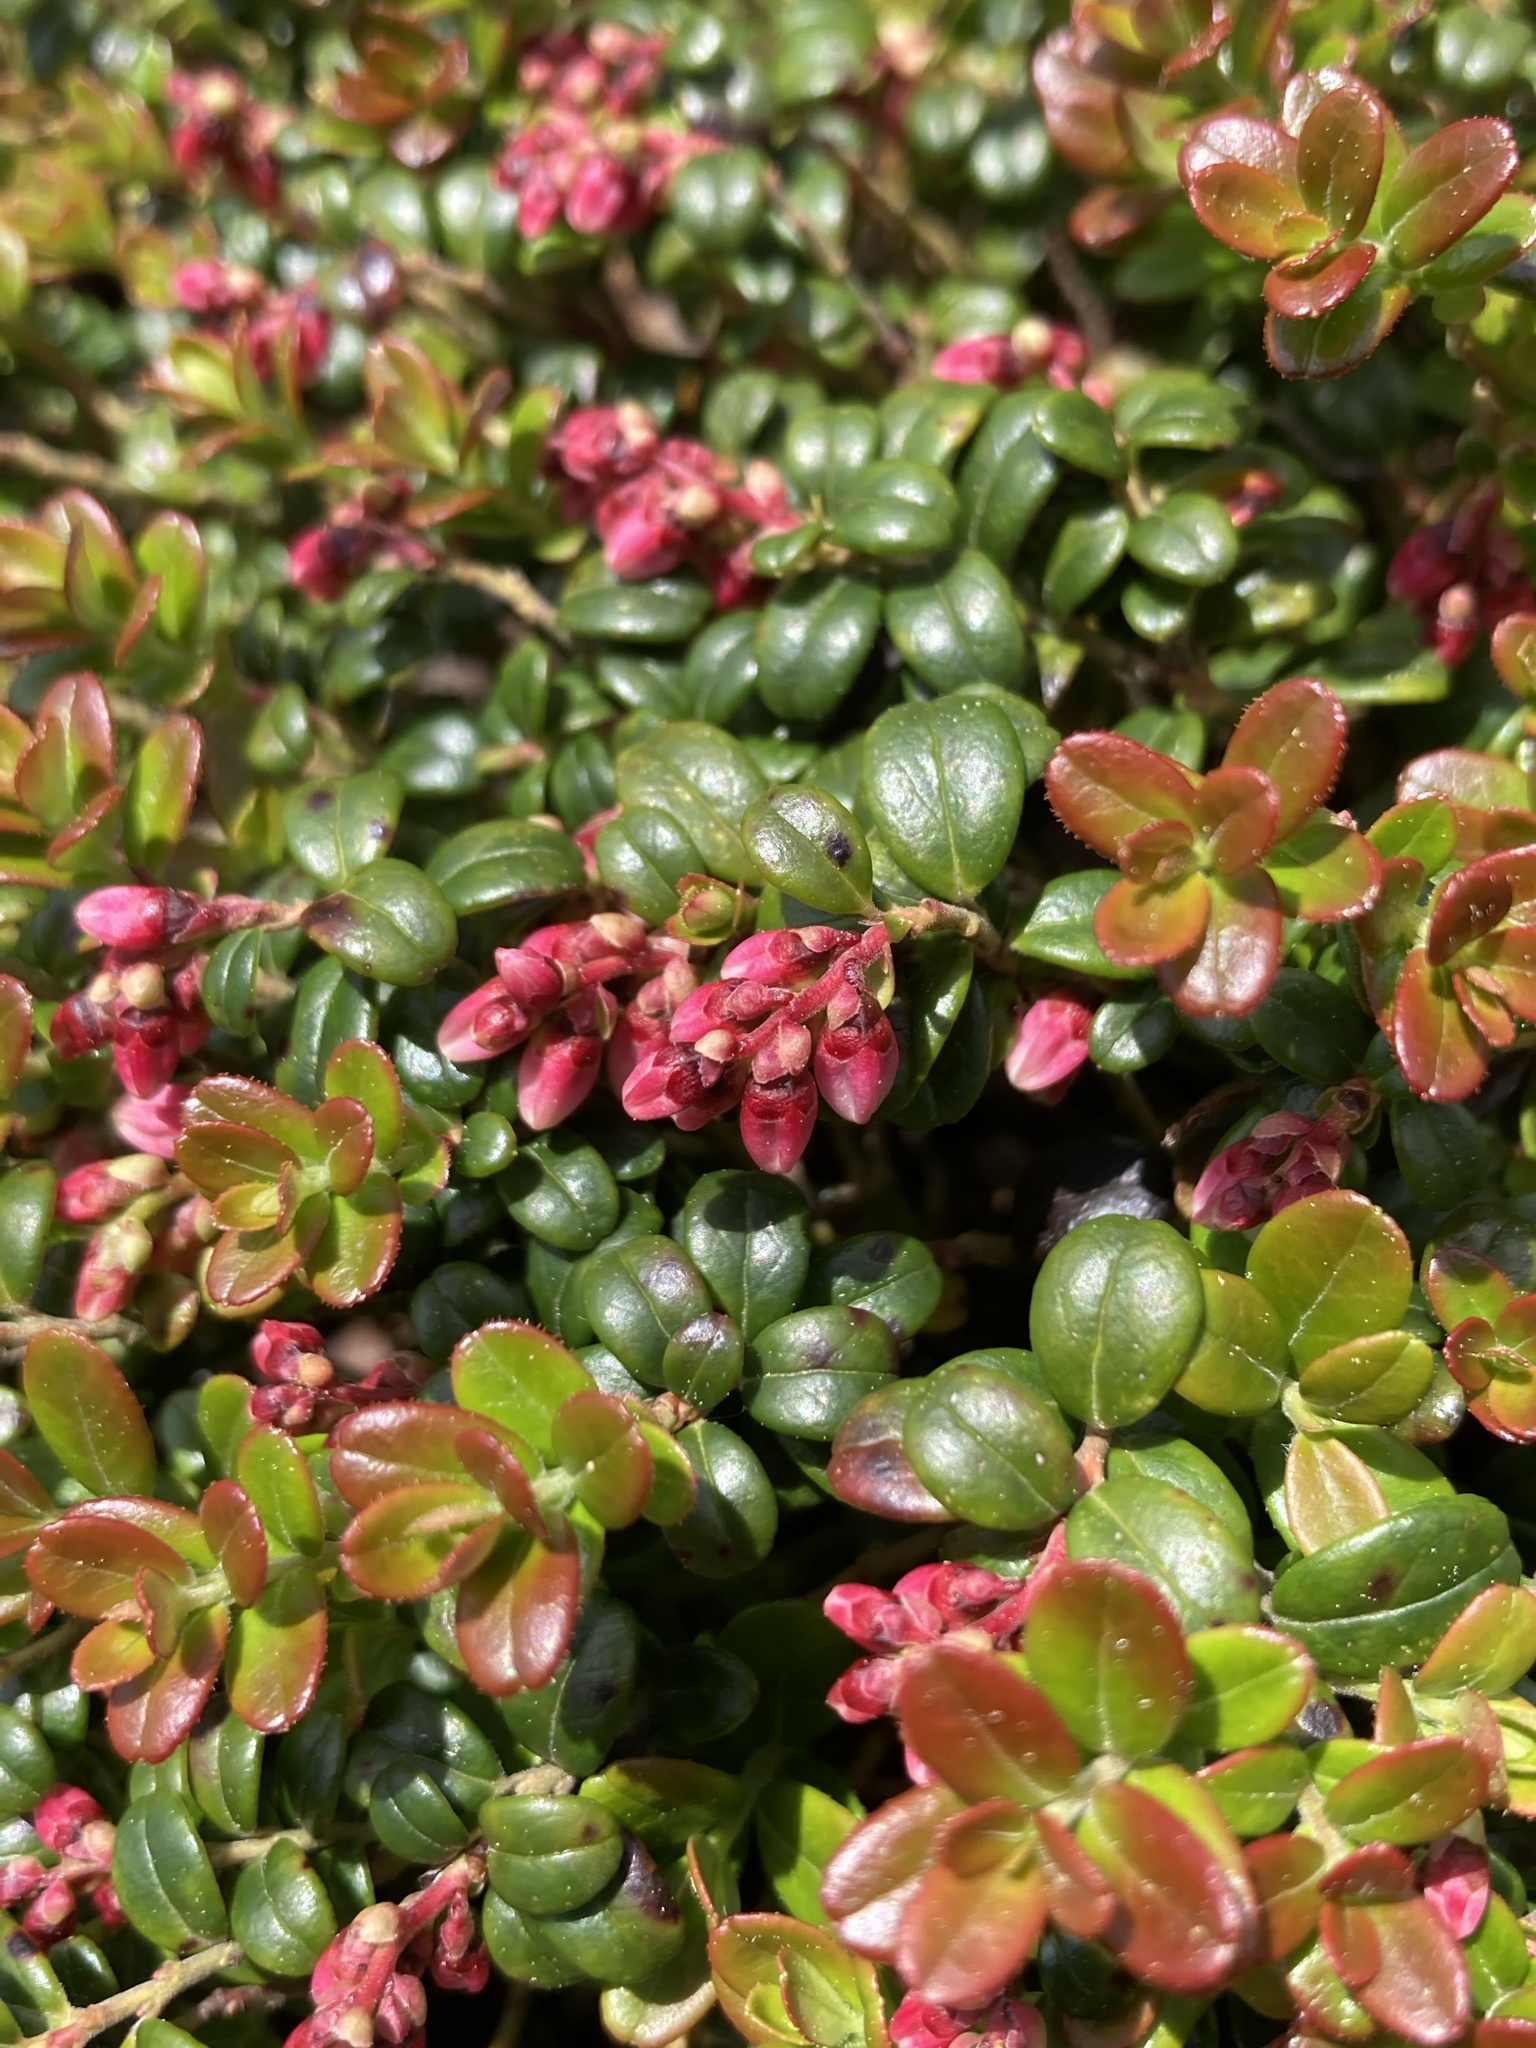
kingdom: Plantae
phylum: Tracheophyta
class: Magnoliopsida
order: Ericales
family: Ericaceae
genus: Vaccinium
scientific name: Vaccinium vitis-idaea
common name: Cowberry
